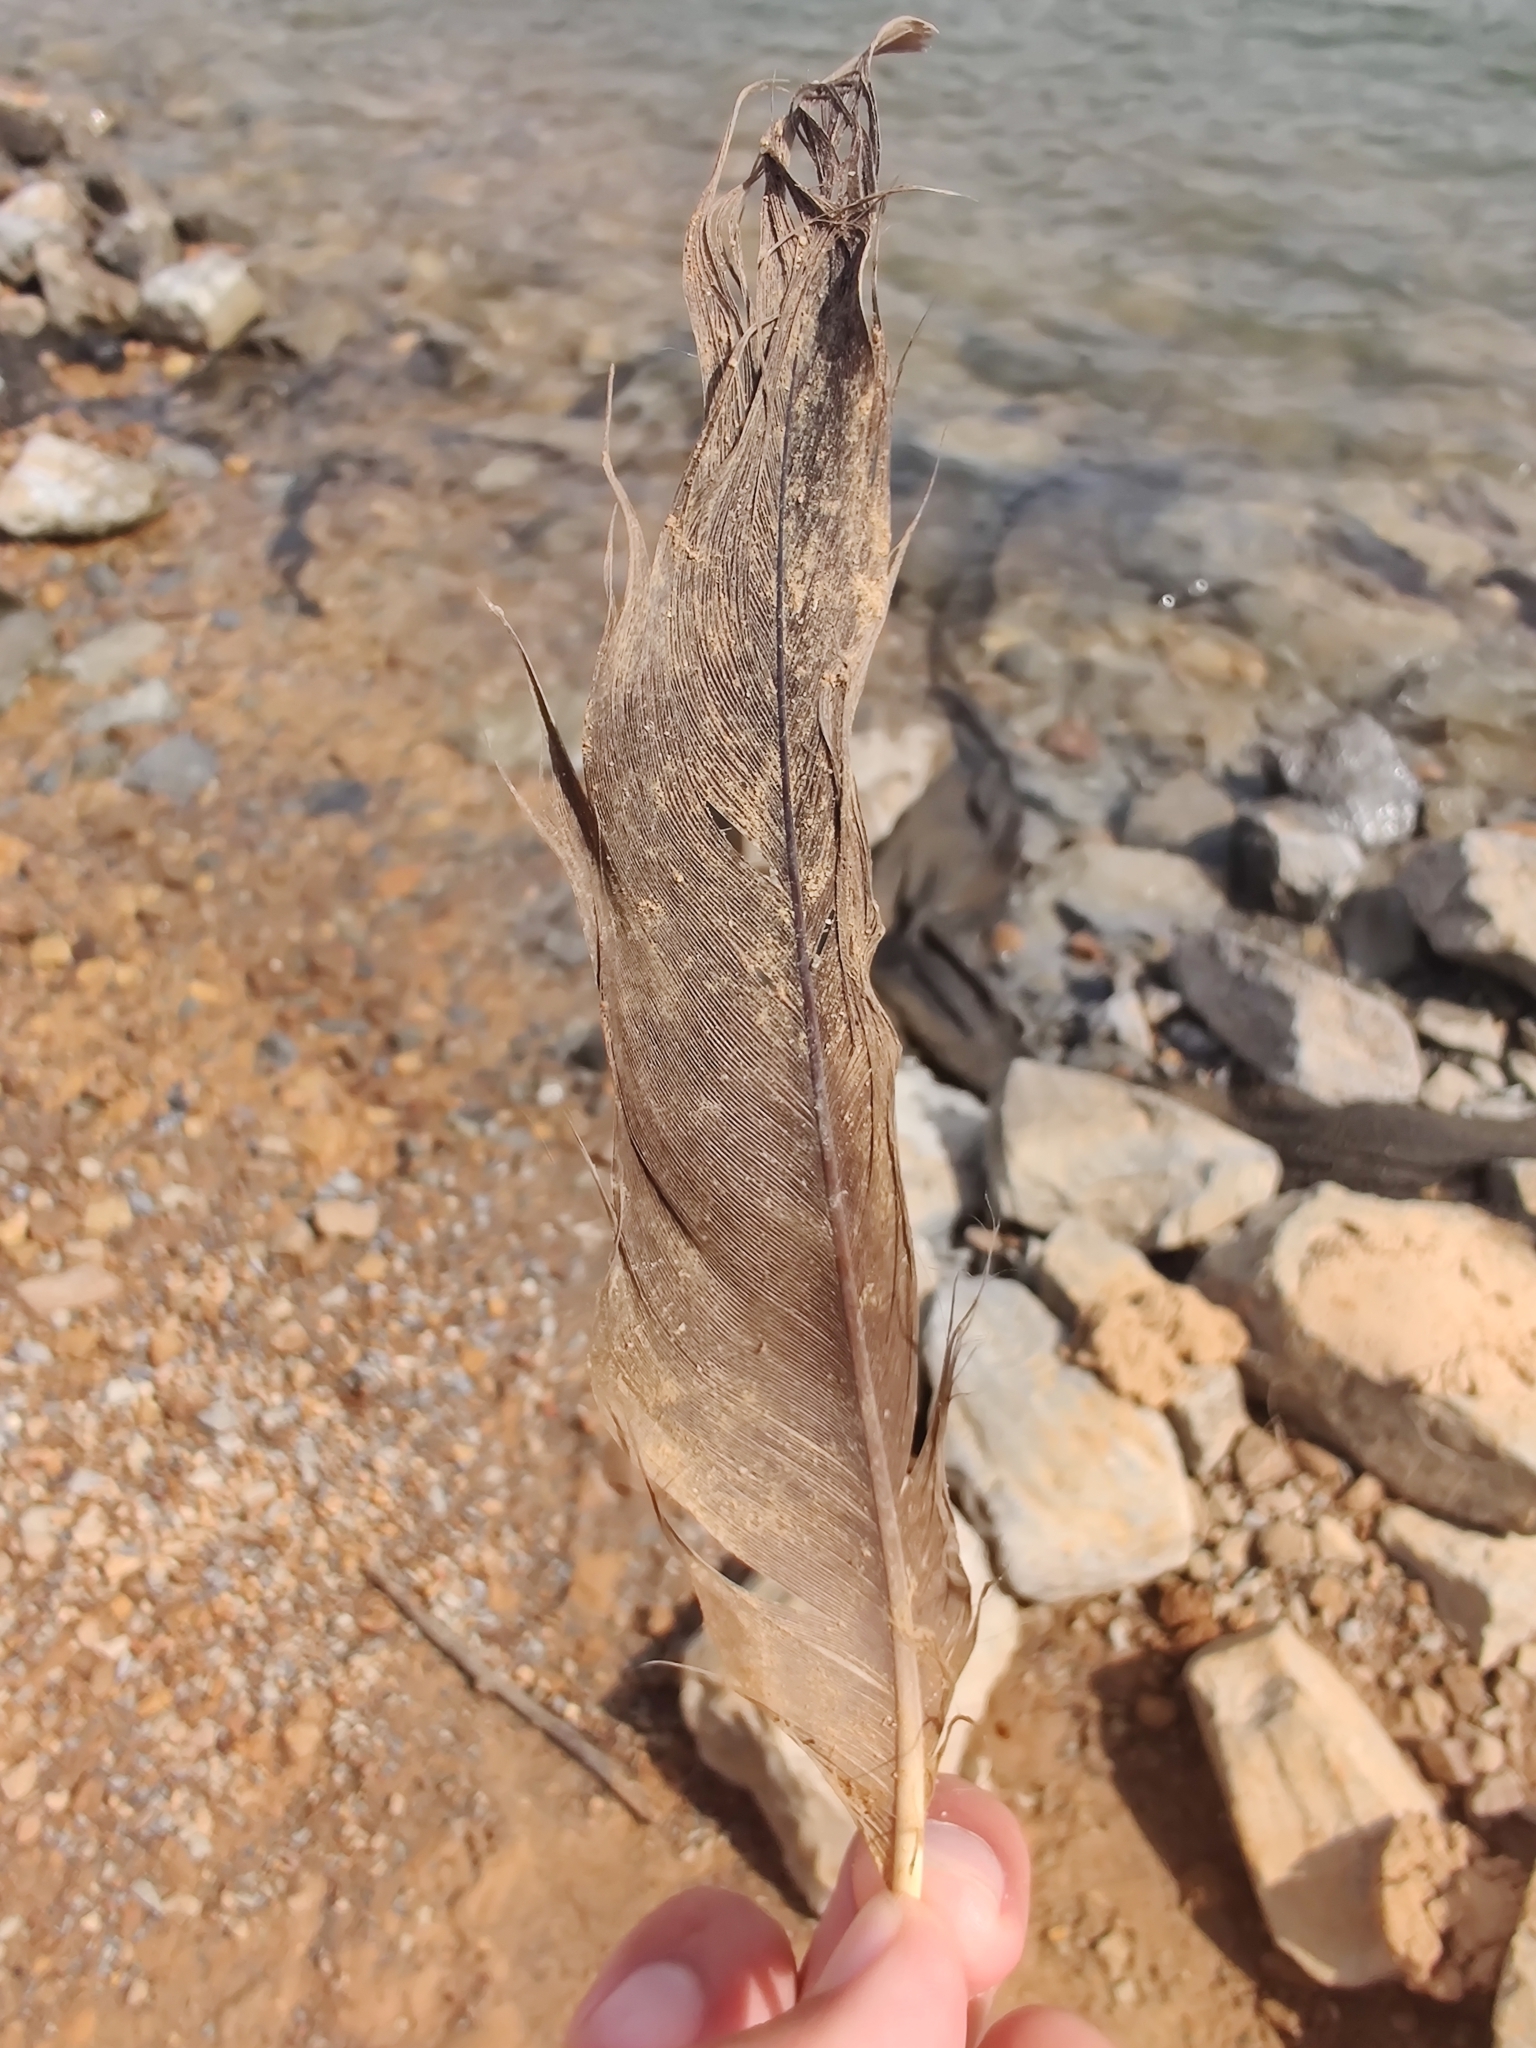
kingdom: Animalia
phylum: Chordata
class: Aves
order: Anseriformes
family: Anatidae
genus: Branta
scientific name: Branta canadensis
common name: Canada goose
